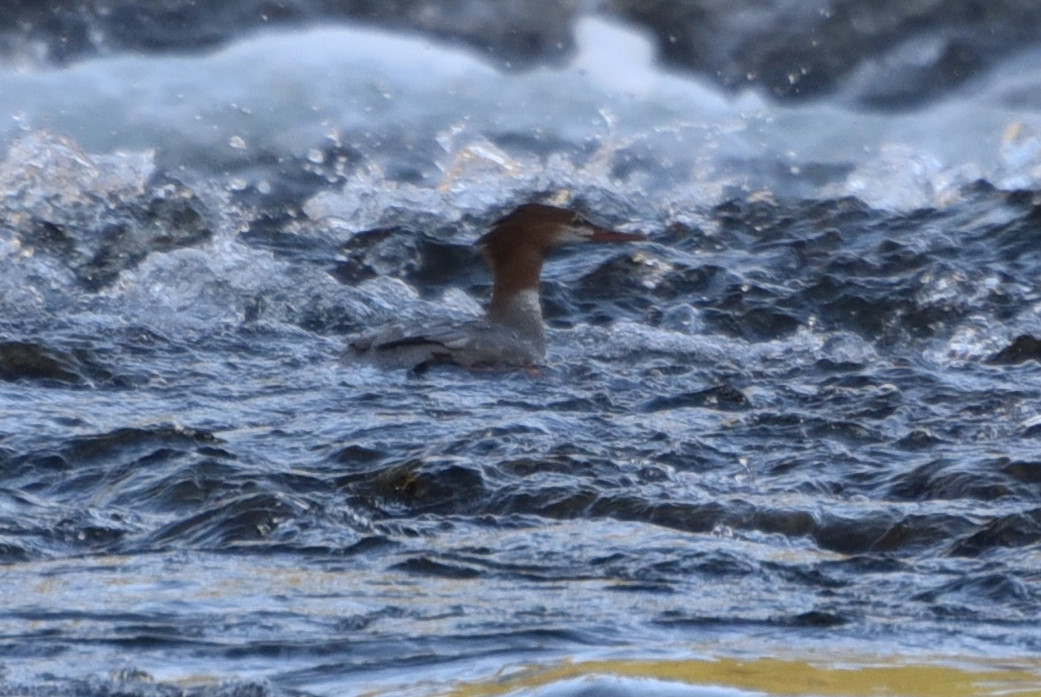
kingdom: Animalia
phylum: Chordata
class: Aves
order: Anseriformes
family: Anatidae
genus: Mergus
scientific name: Mergus merganser
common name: Common merganser
